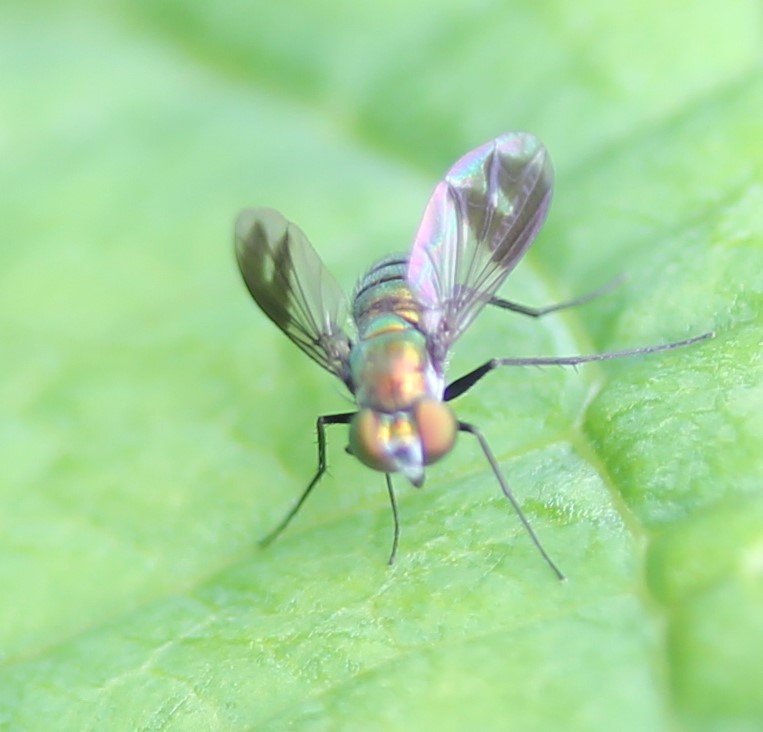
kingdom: Animalia
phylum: Arthropoda
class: Insecta
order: Diptera
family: Dolichopodidae
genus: Condylostylus
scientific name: Condylostylus patibulatus
